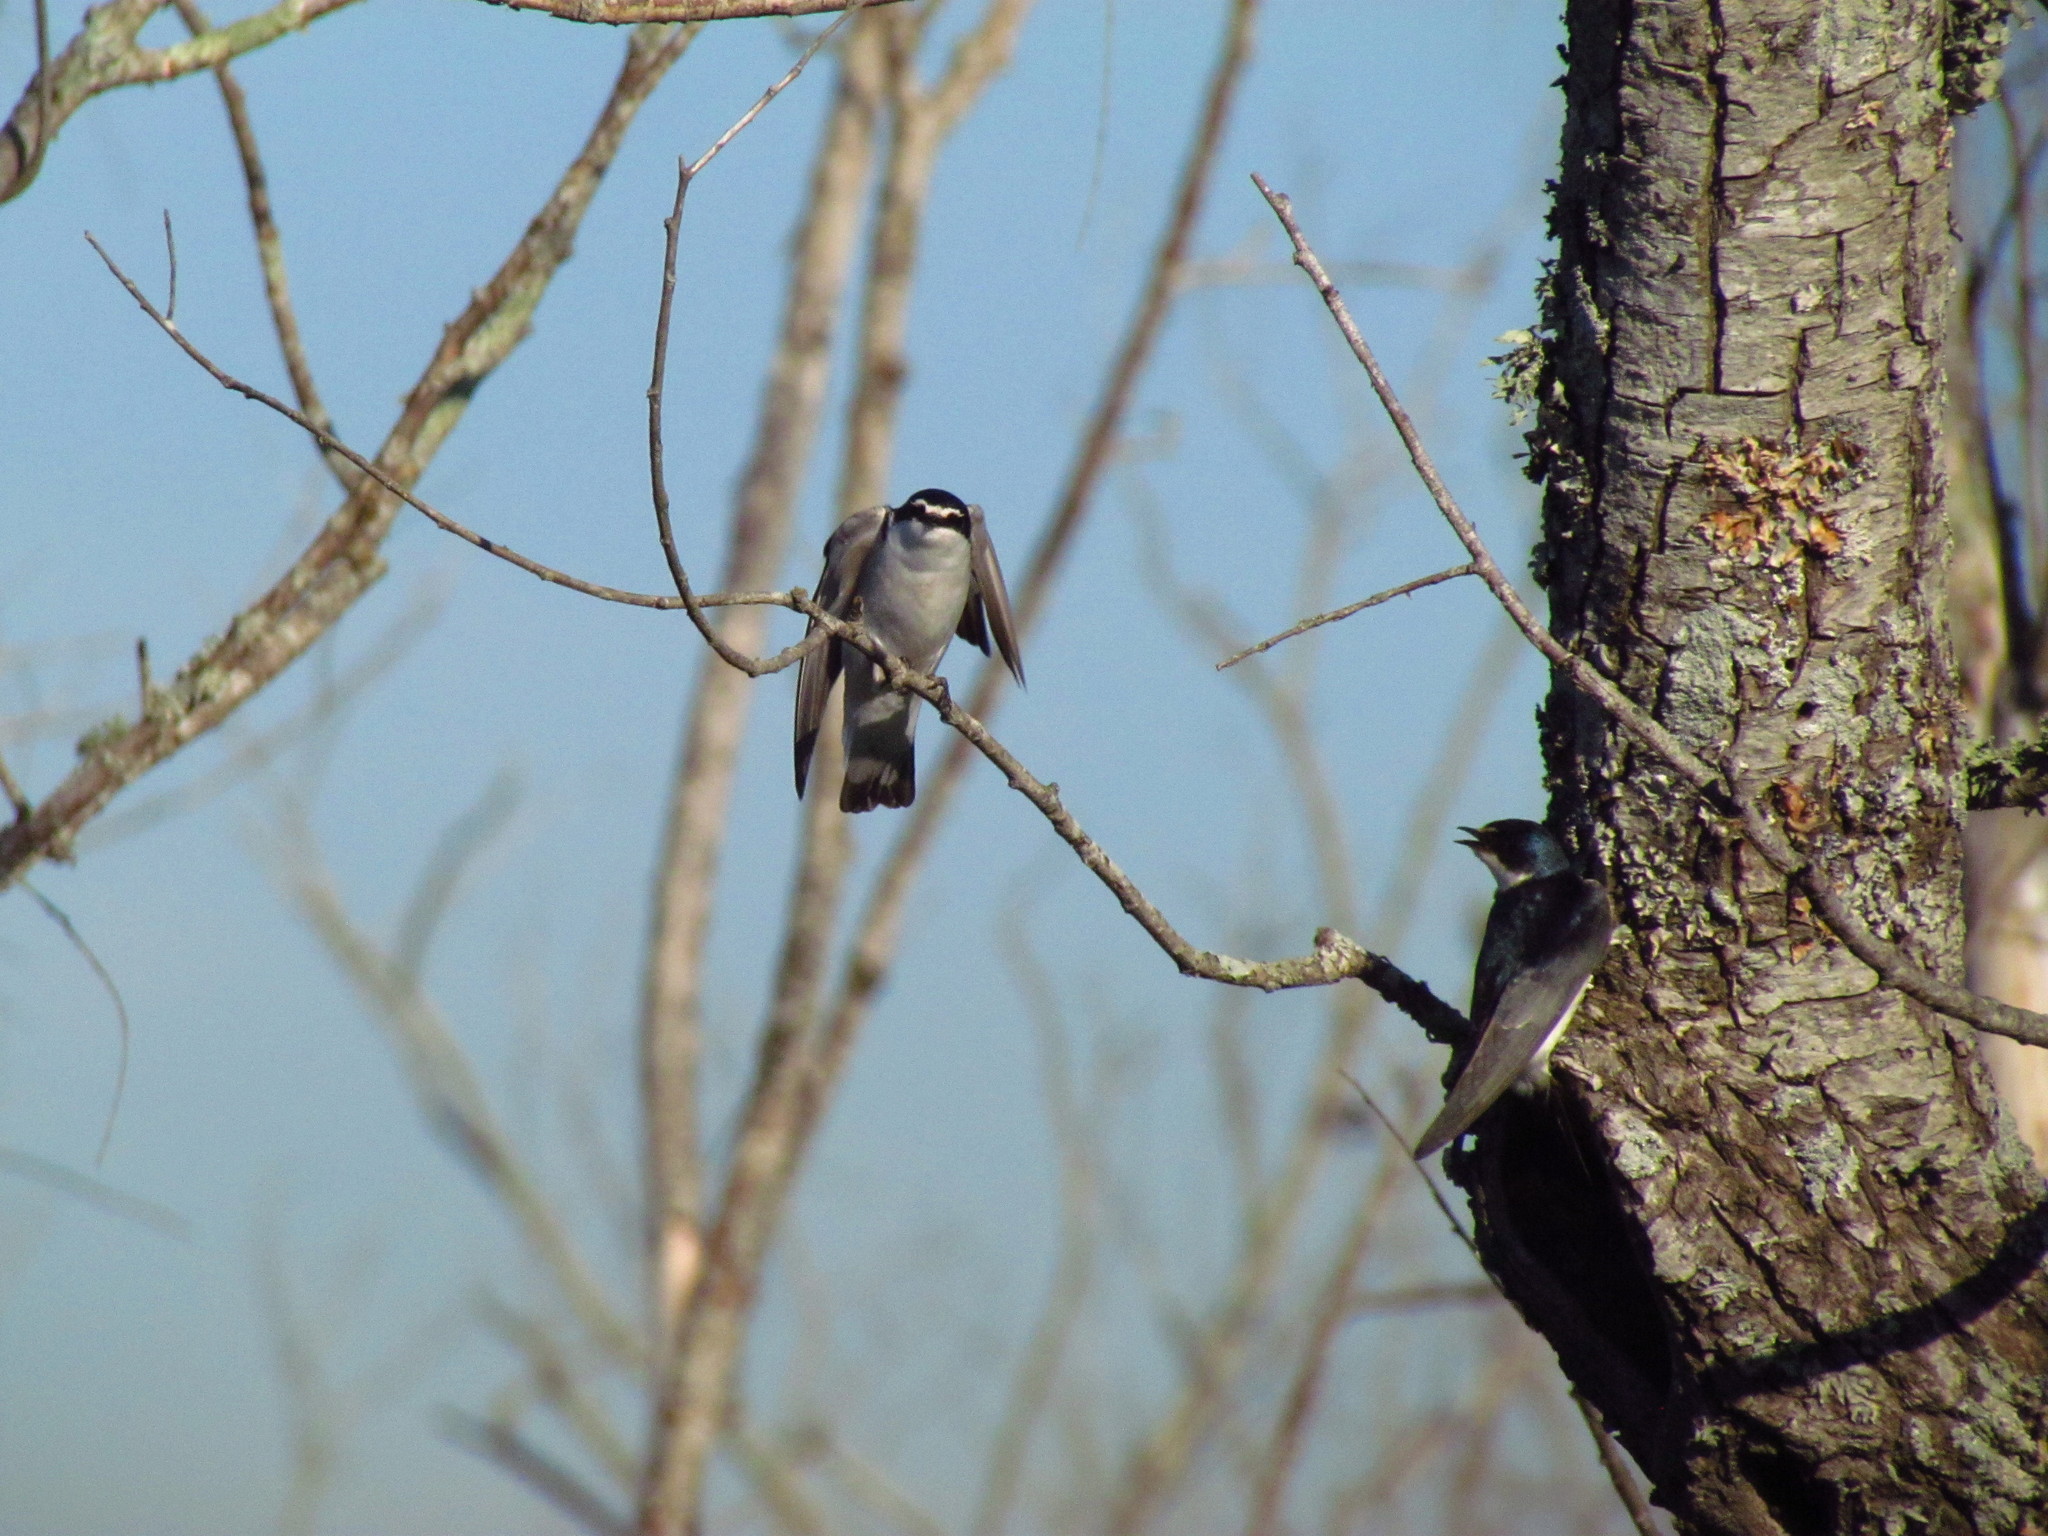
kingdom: Animalia
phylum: Chordata
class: Aves
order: Passeriformes
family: Hirundinidae
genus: Tachycineta
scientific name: Tachycineta leucorrhoa
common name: White-rumped swallow
